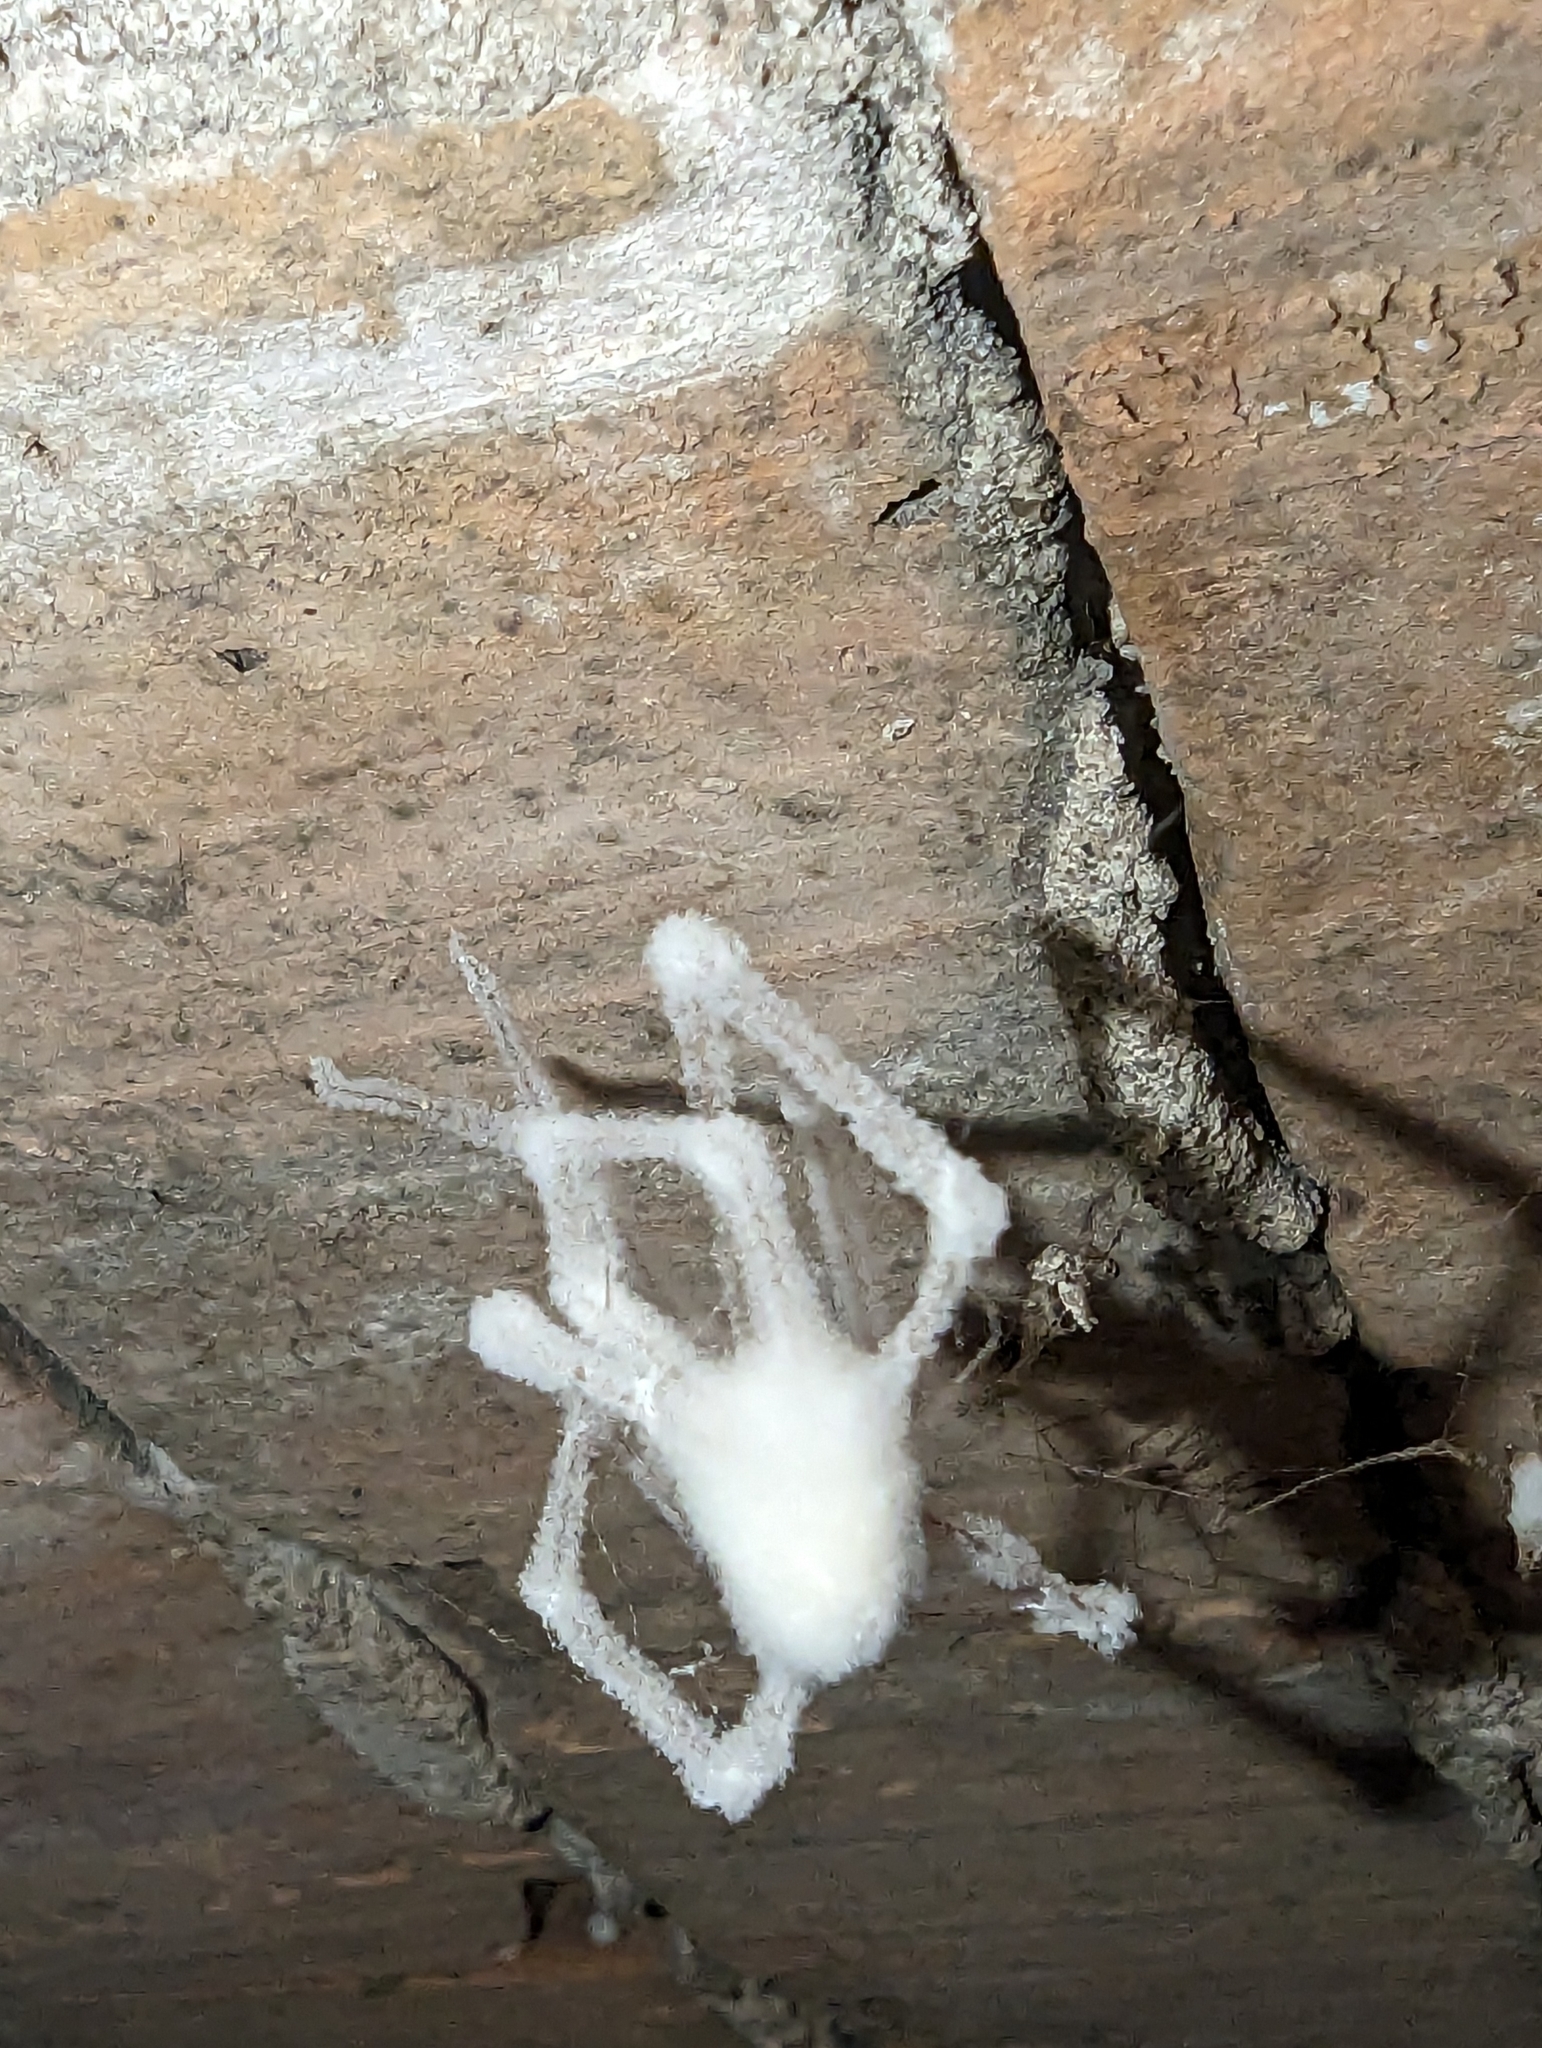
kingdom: Fungi
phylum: Ascomycota
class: Sordariomycetes
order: Hypocreales
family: Cordycipitaceae
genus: Lecanicillium
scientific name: Lecanicillium tenuipes
